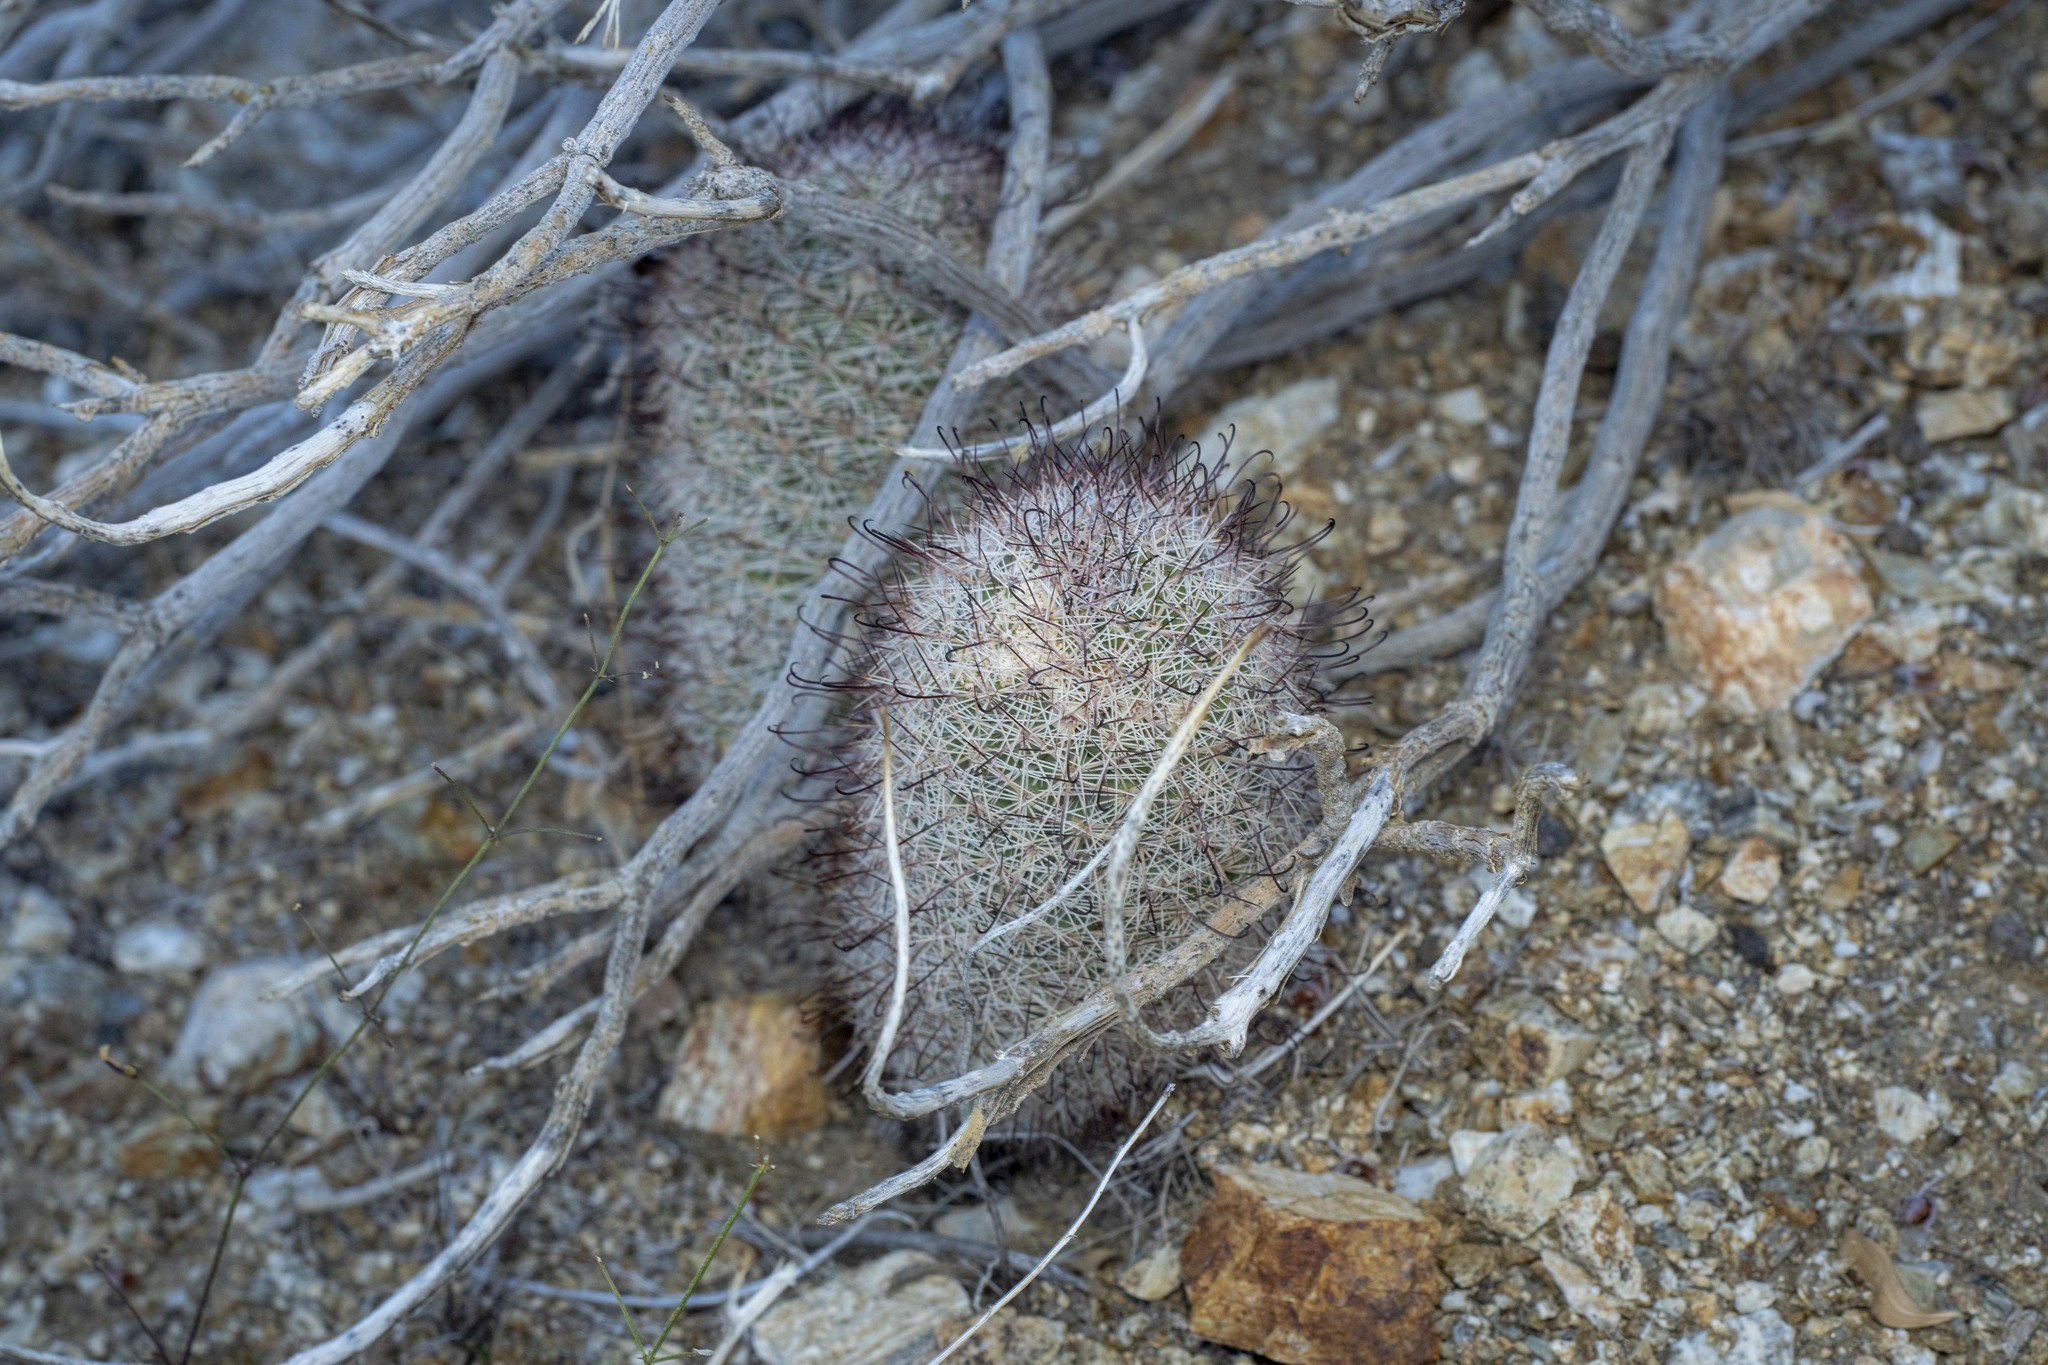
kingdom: Plantae
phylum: Tracheophyta
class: Magnoliopsida
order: Caryophyllales
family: Cactaceae
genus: Cochemiea
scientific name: Cochemiea dioica
